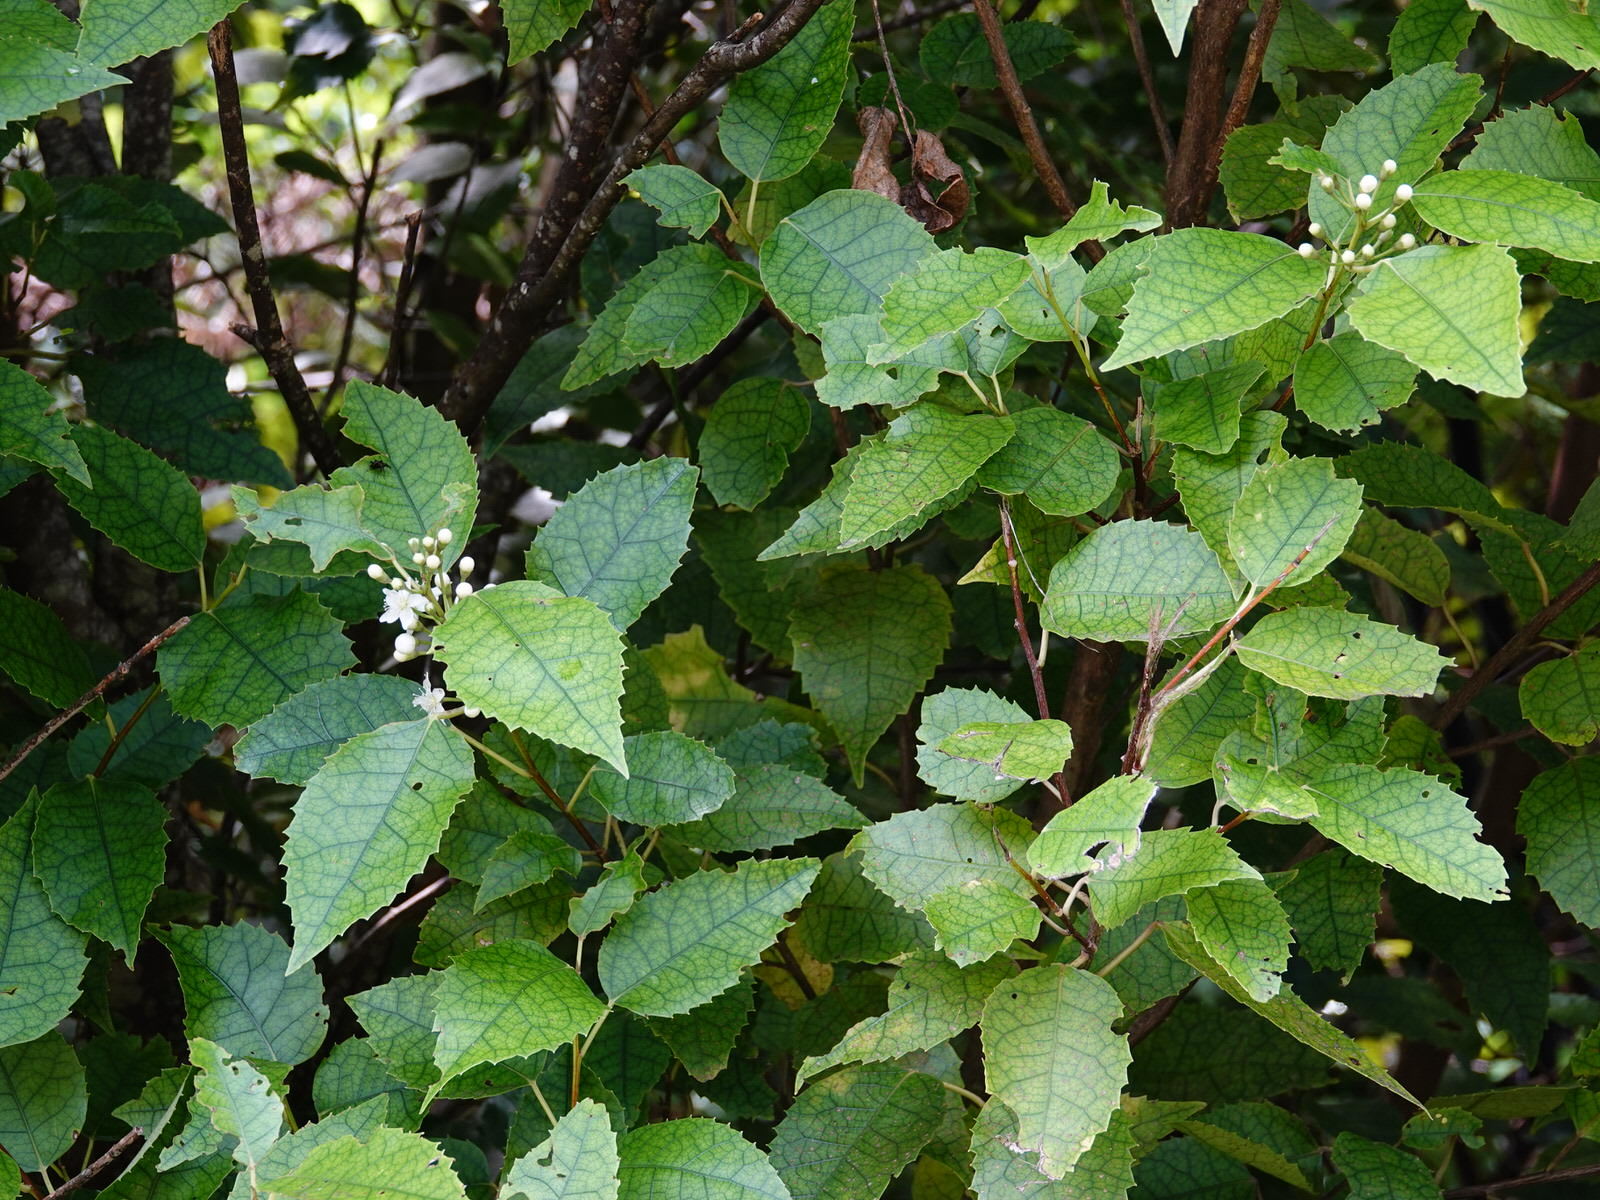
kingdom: Plantae
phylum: Tracheophyta
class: Magnoliopsida
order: Malvales
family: Malvaceae
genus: Hoheria
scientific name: Hoheria populnea
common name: Lacebark
